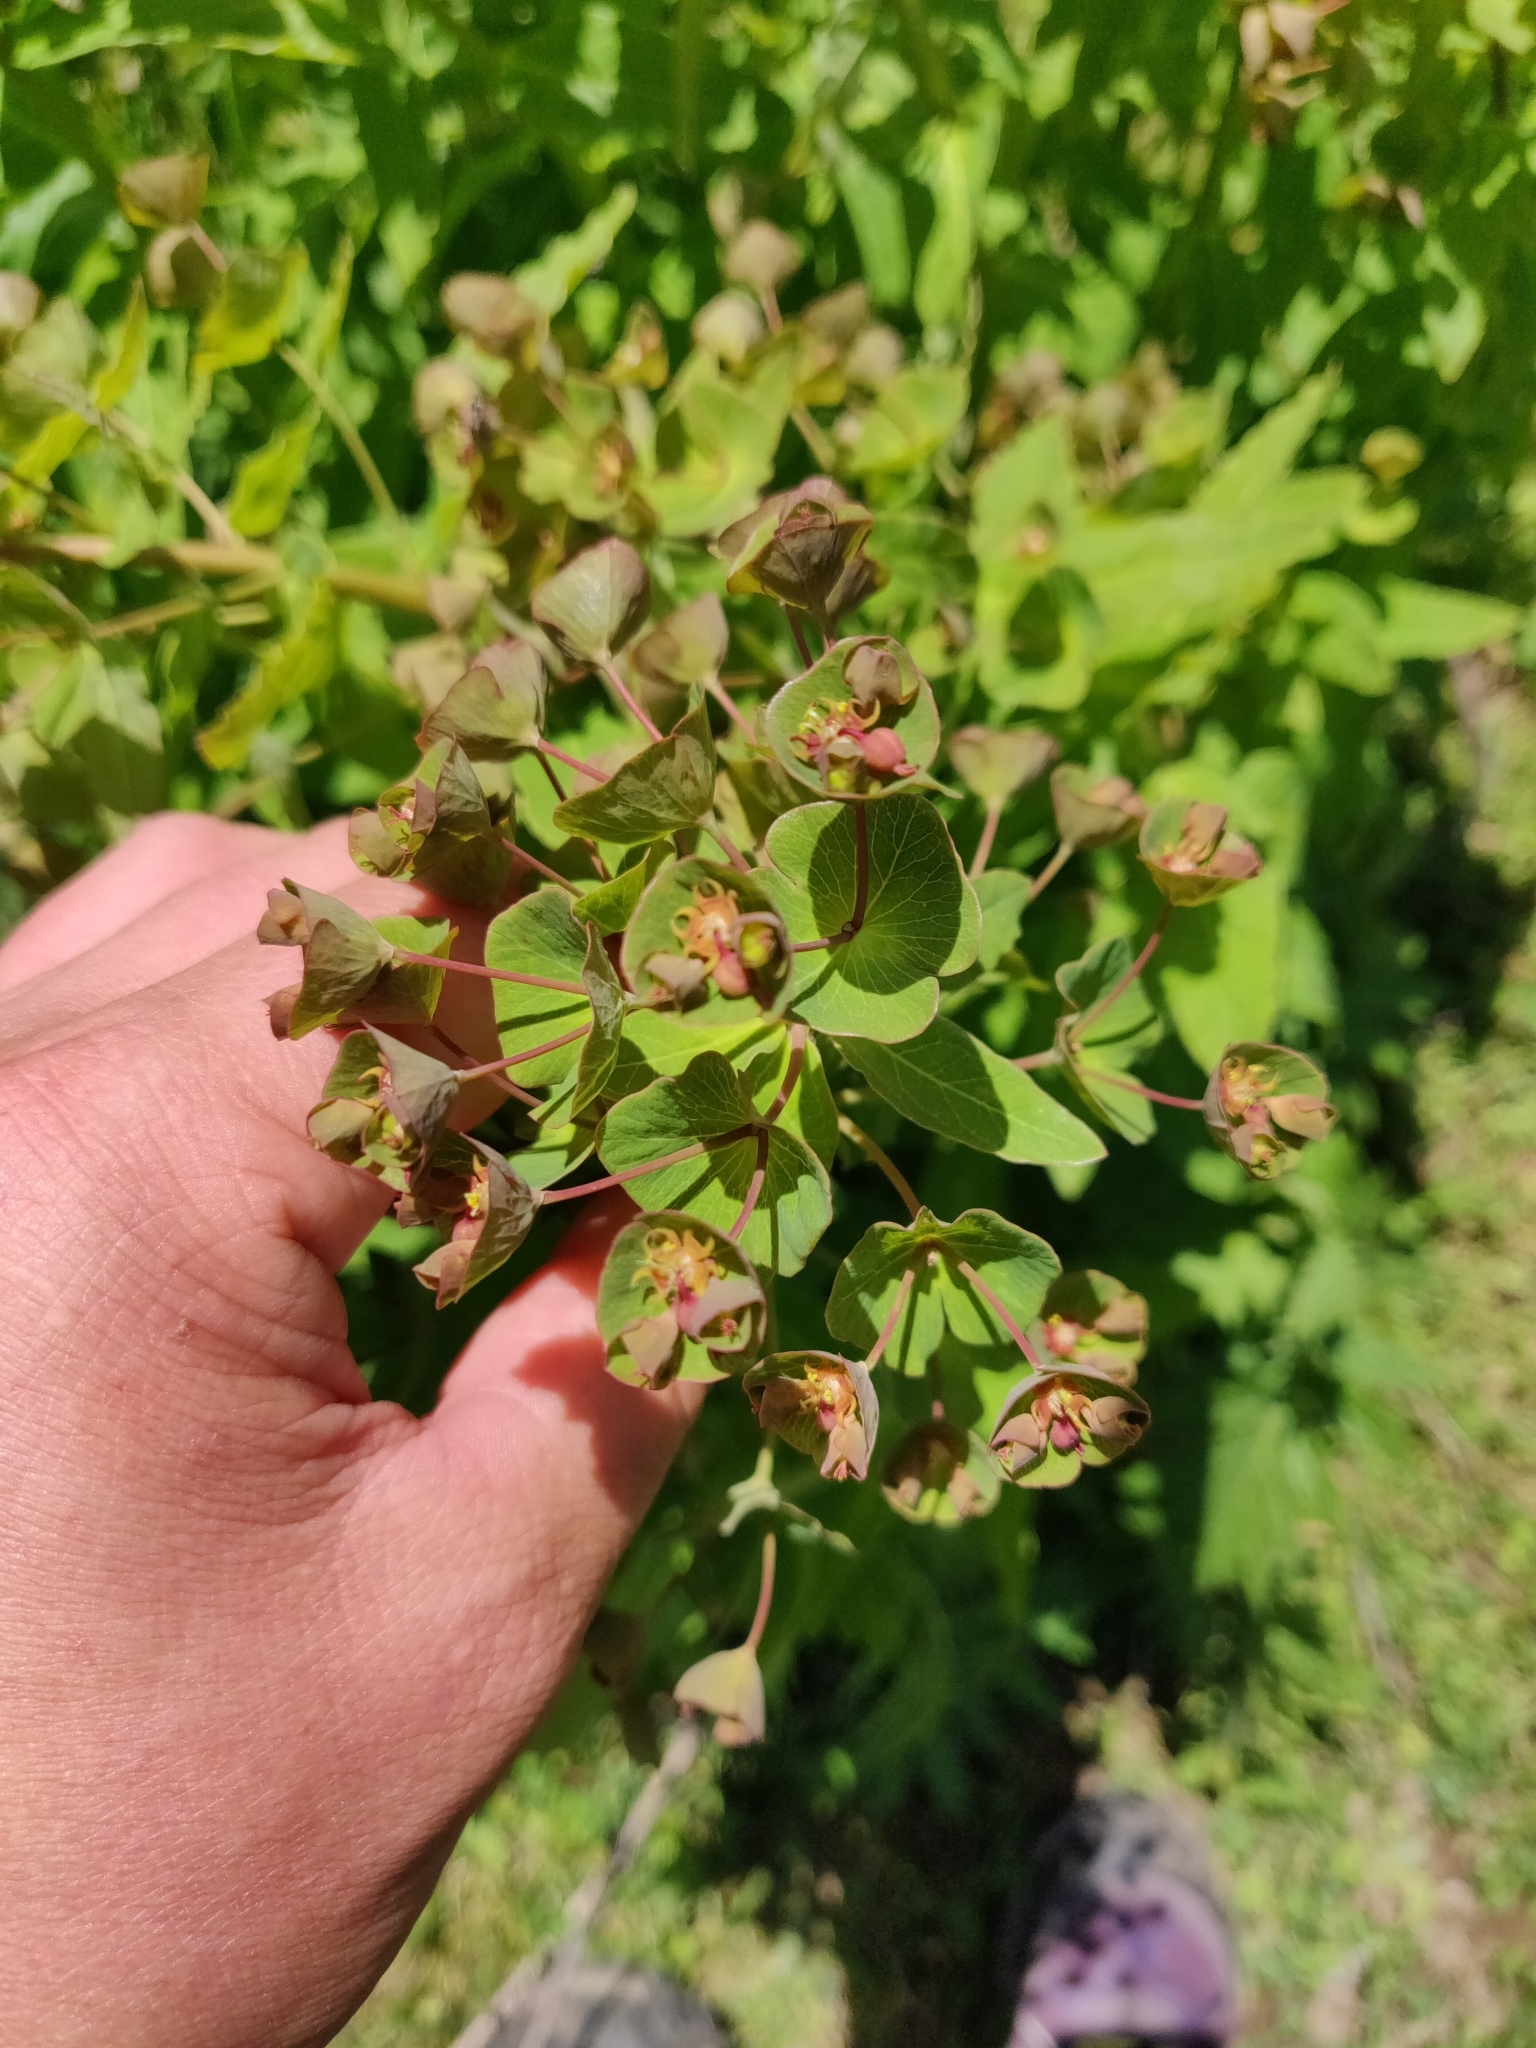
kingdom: Plantae
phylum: Tracheophyta
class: Magnoliopsida
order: Malpighiales
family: Euphorbiaceae
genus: Euphorbia
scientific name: Euphorbia oblongifolia
